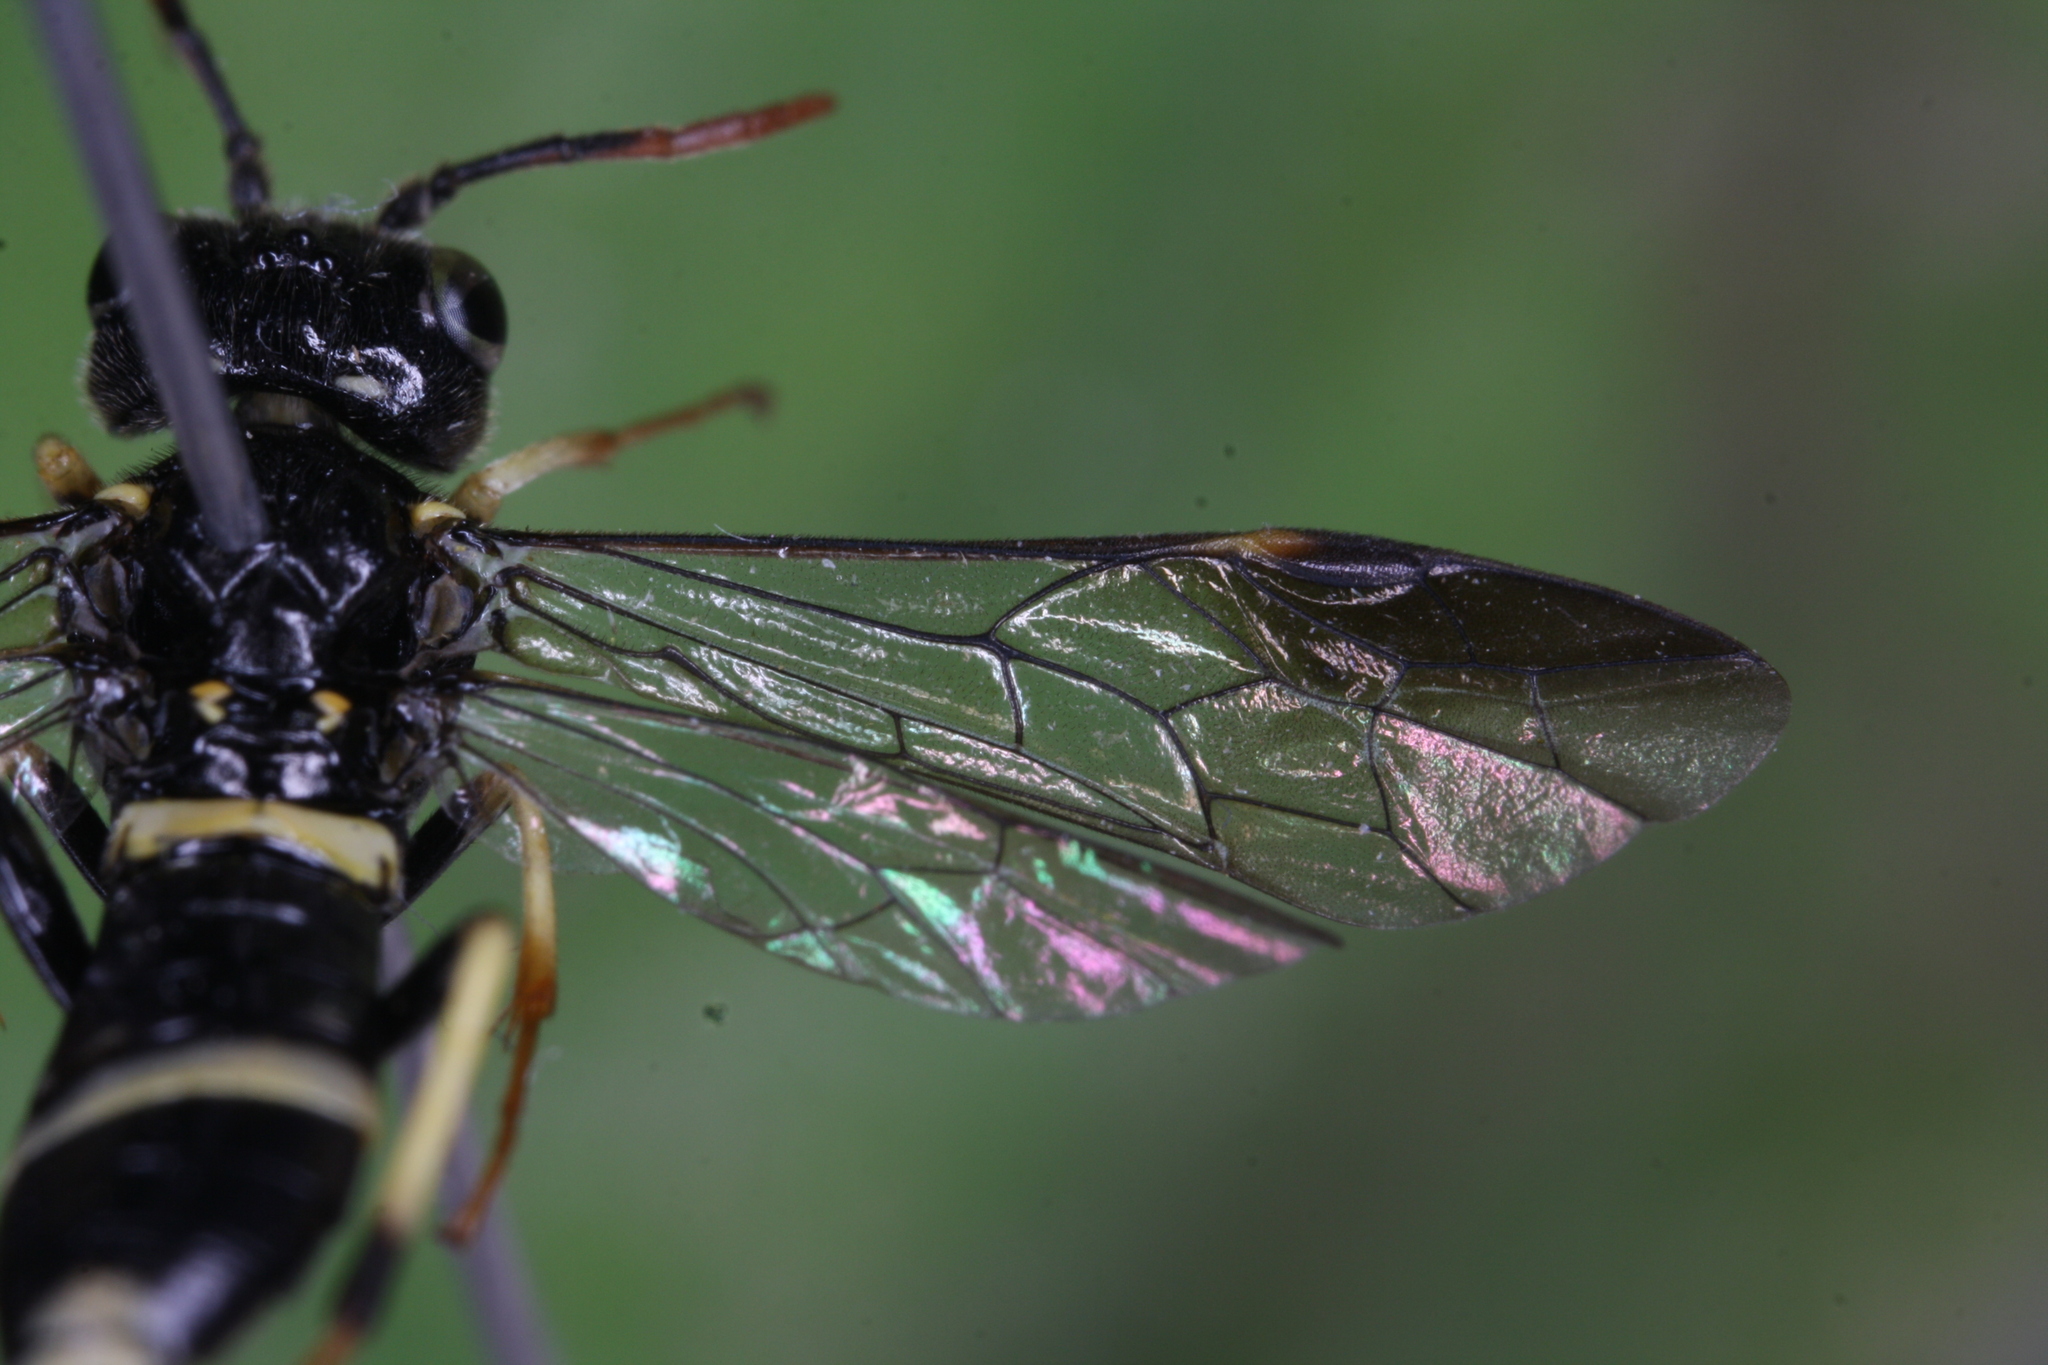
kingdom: Animalia
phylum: Arthropoda
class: Insecta
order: Hymenoptera
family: Tenthredinidae
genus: Allantus
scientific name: Allantus togatus
